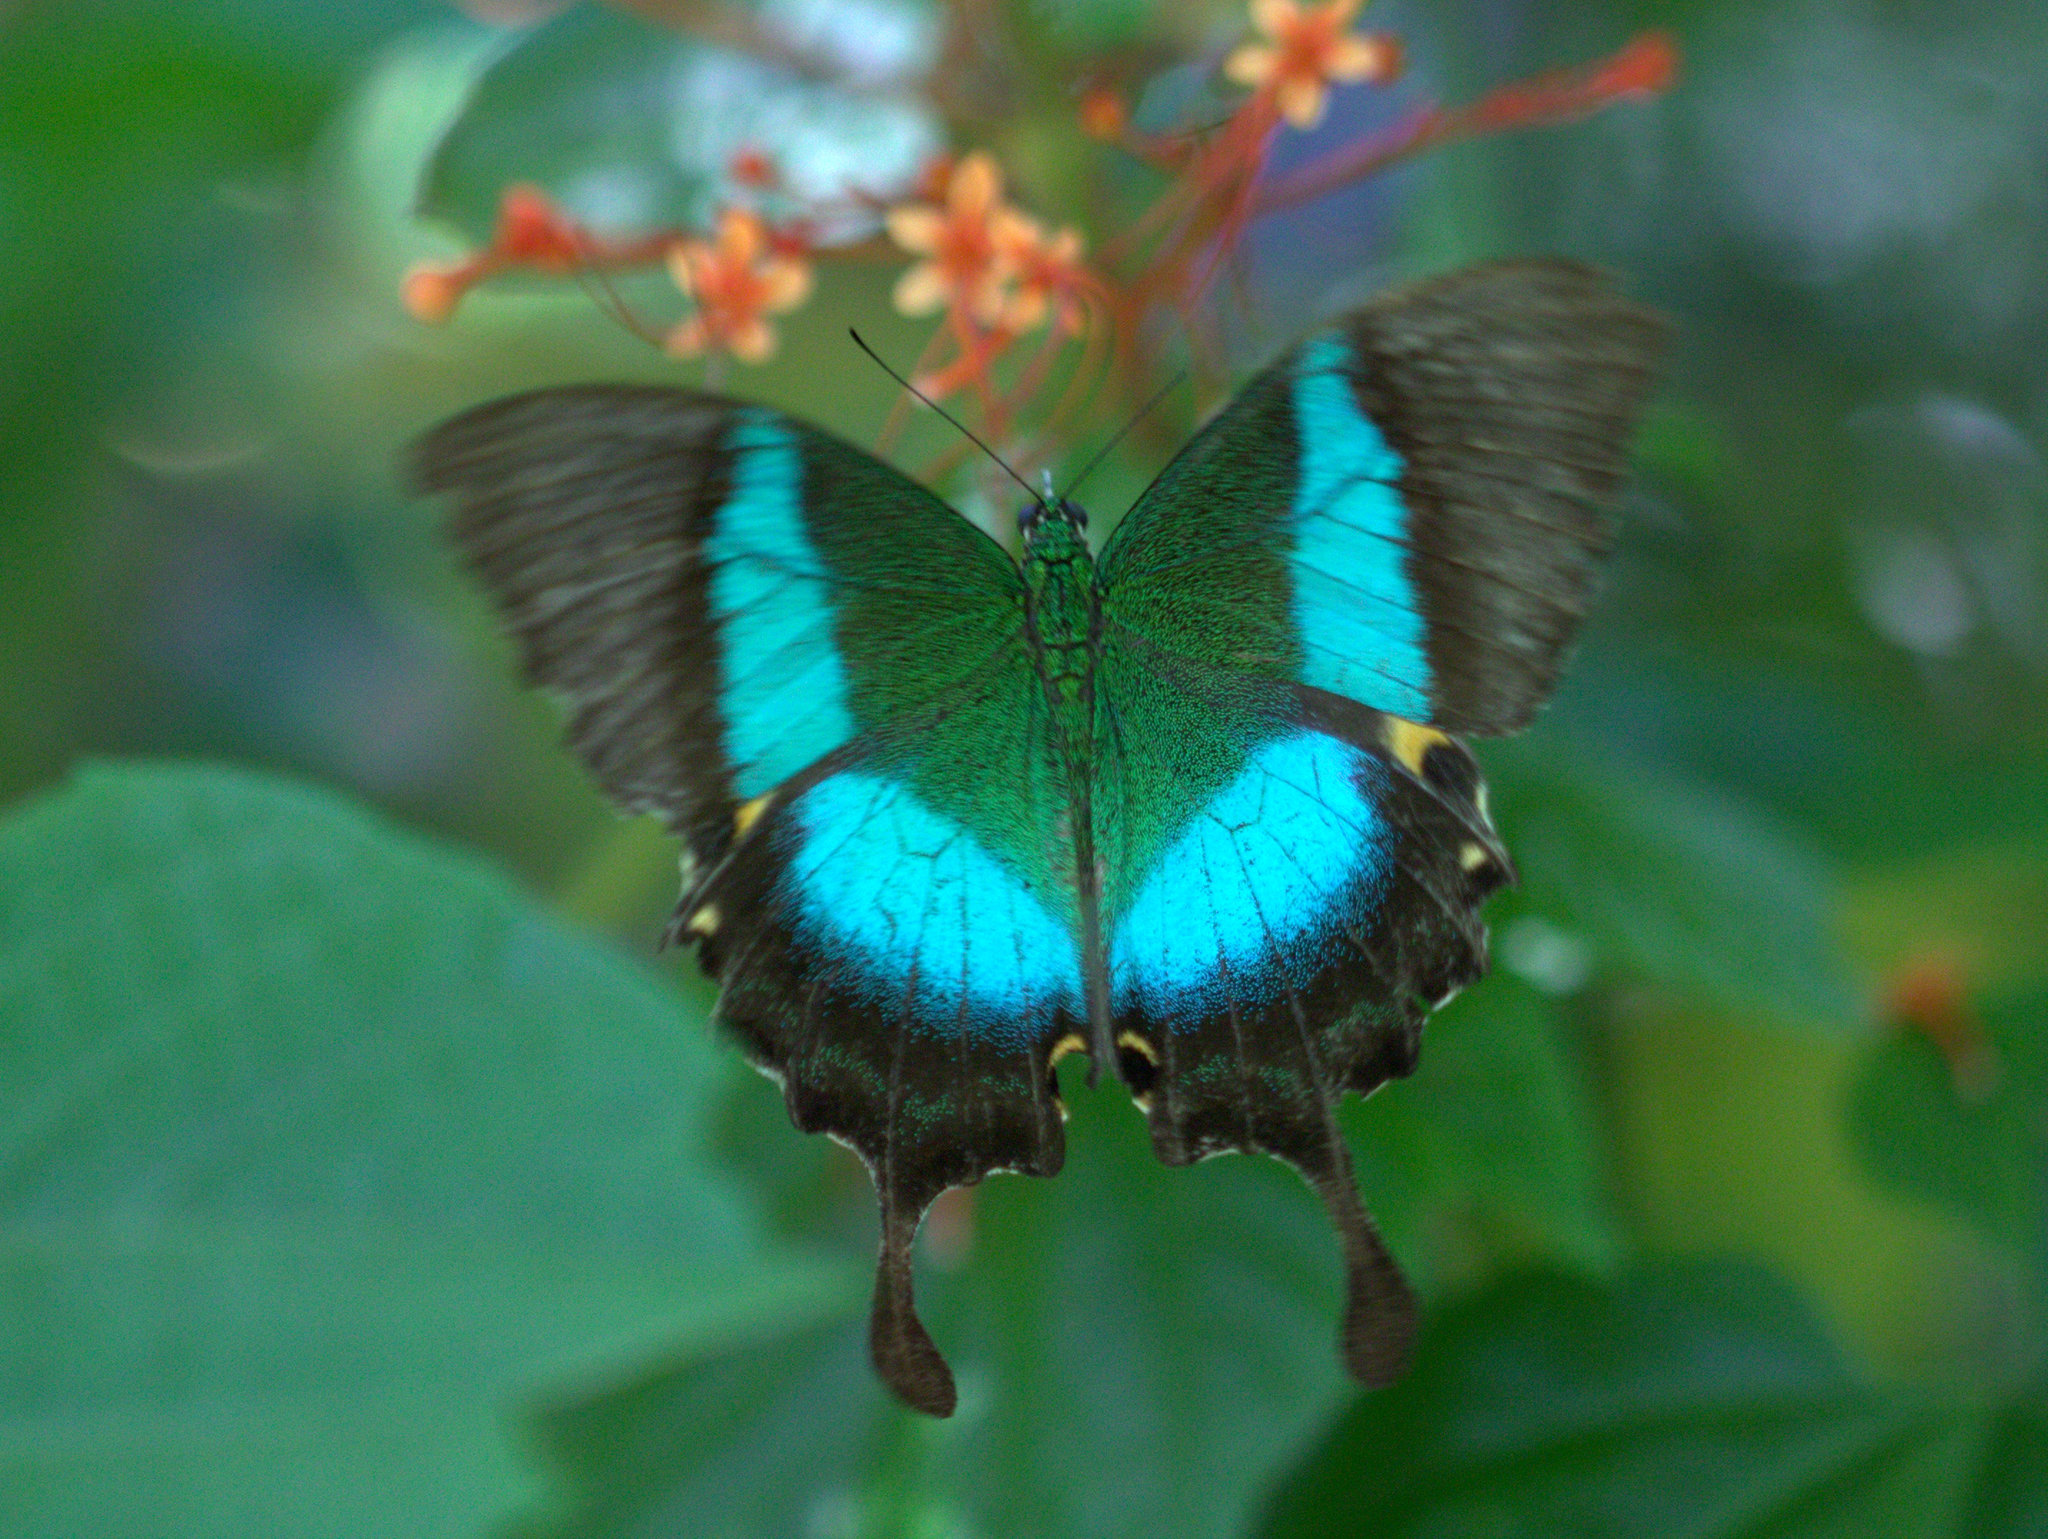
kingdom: Animalia
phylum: Arthropoda
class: Insecta
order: Lepidoptera
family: Papilionidae
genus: Papilio
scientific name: Papilio buddha
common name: Malabar banded peacock
